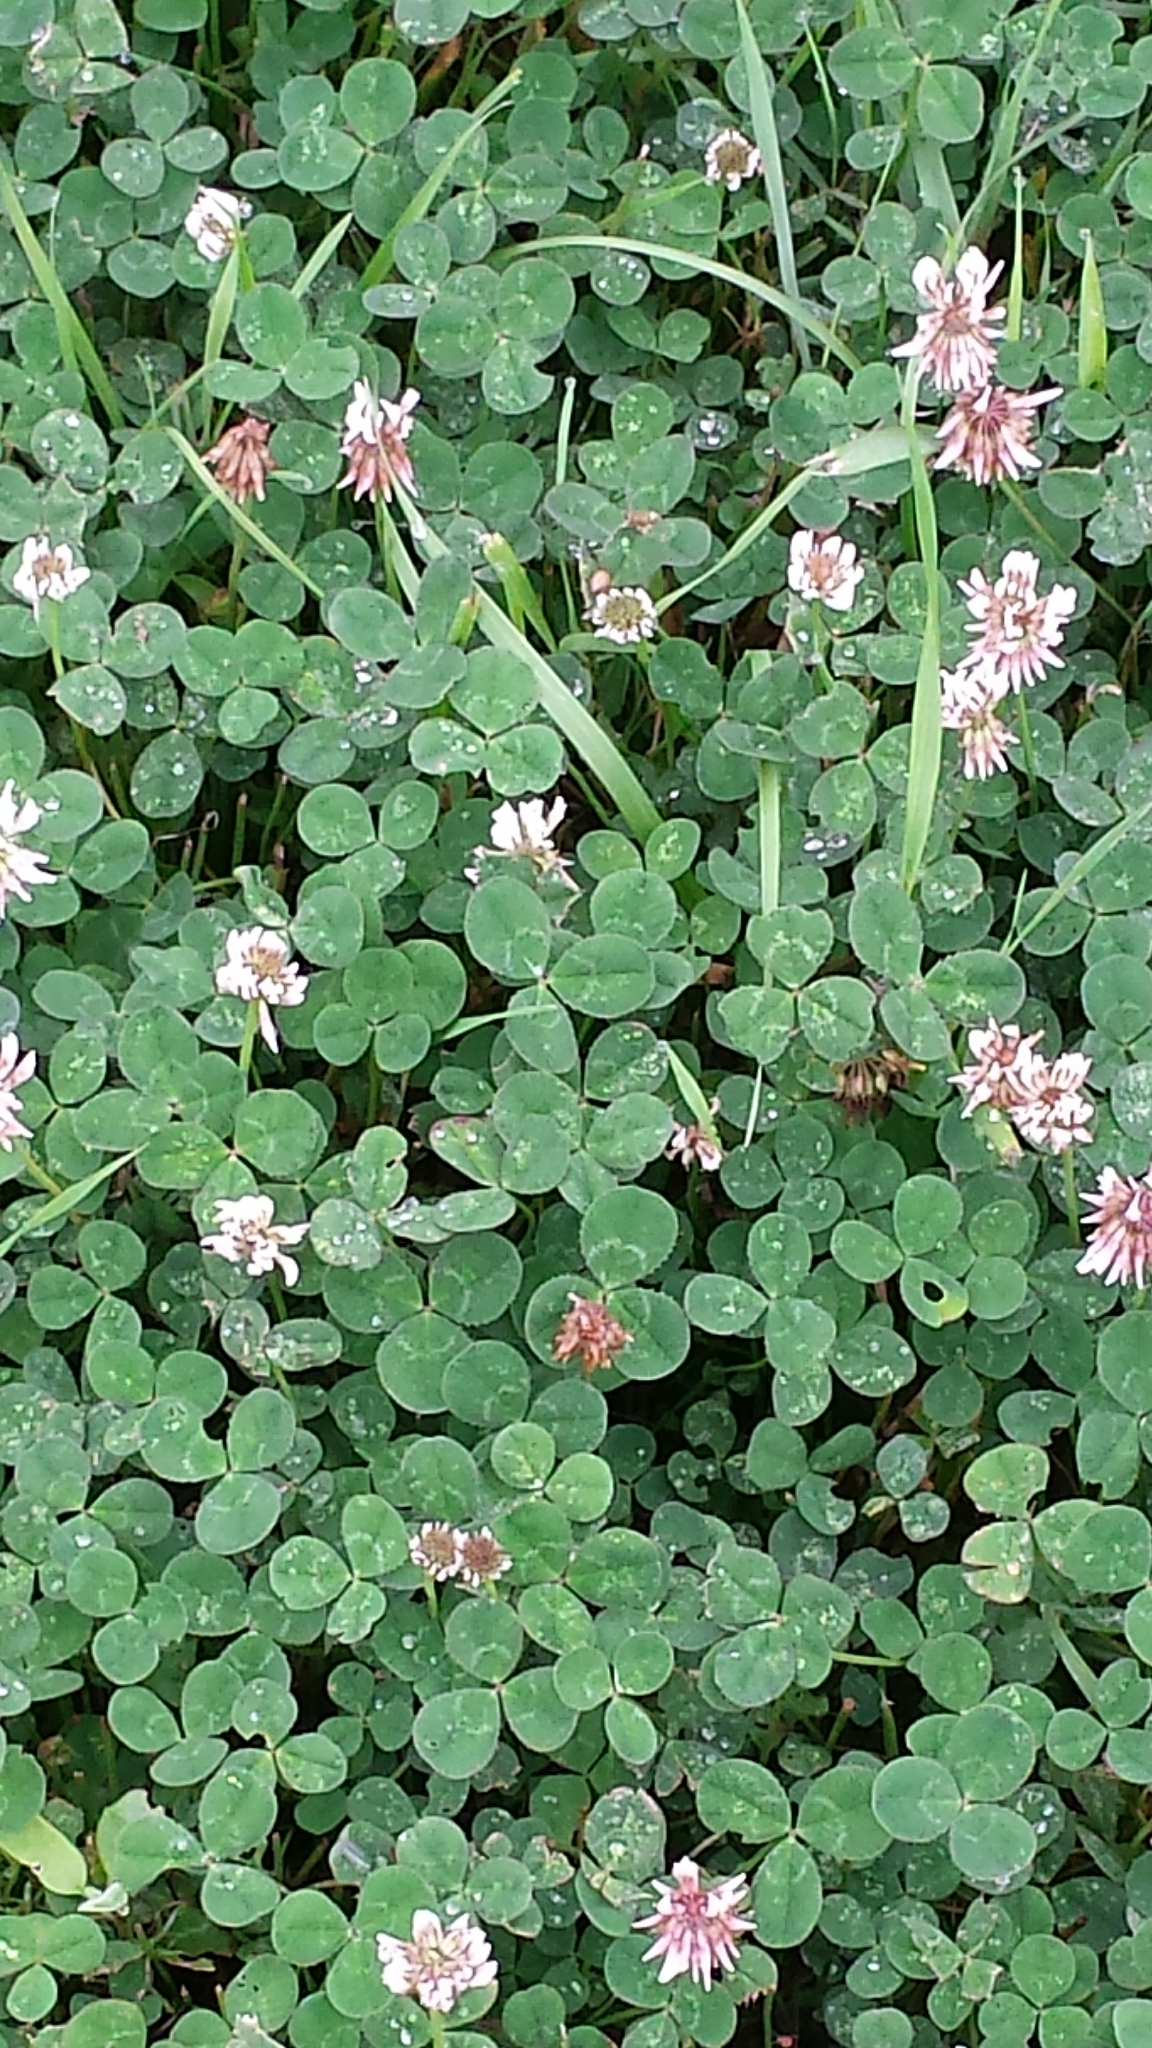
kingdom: Plantae
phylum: Tracheophyta
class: Magnoliopsida
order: Fabales
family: Fabaceae
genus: Trifolium
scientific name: Trifolium repens
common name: White clover
